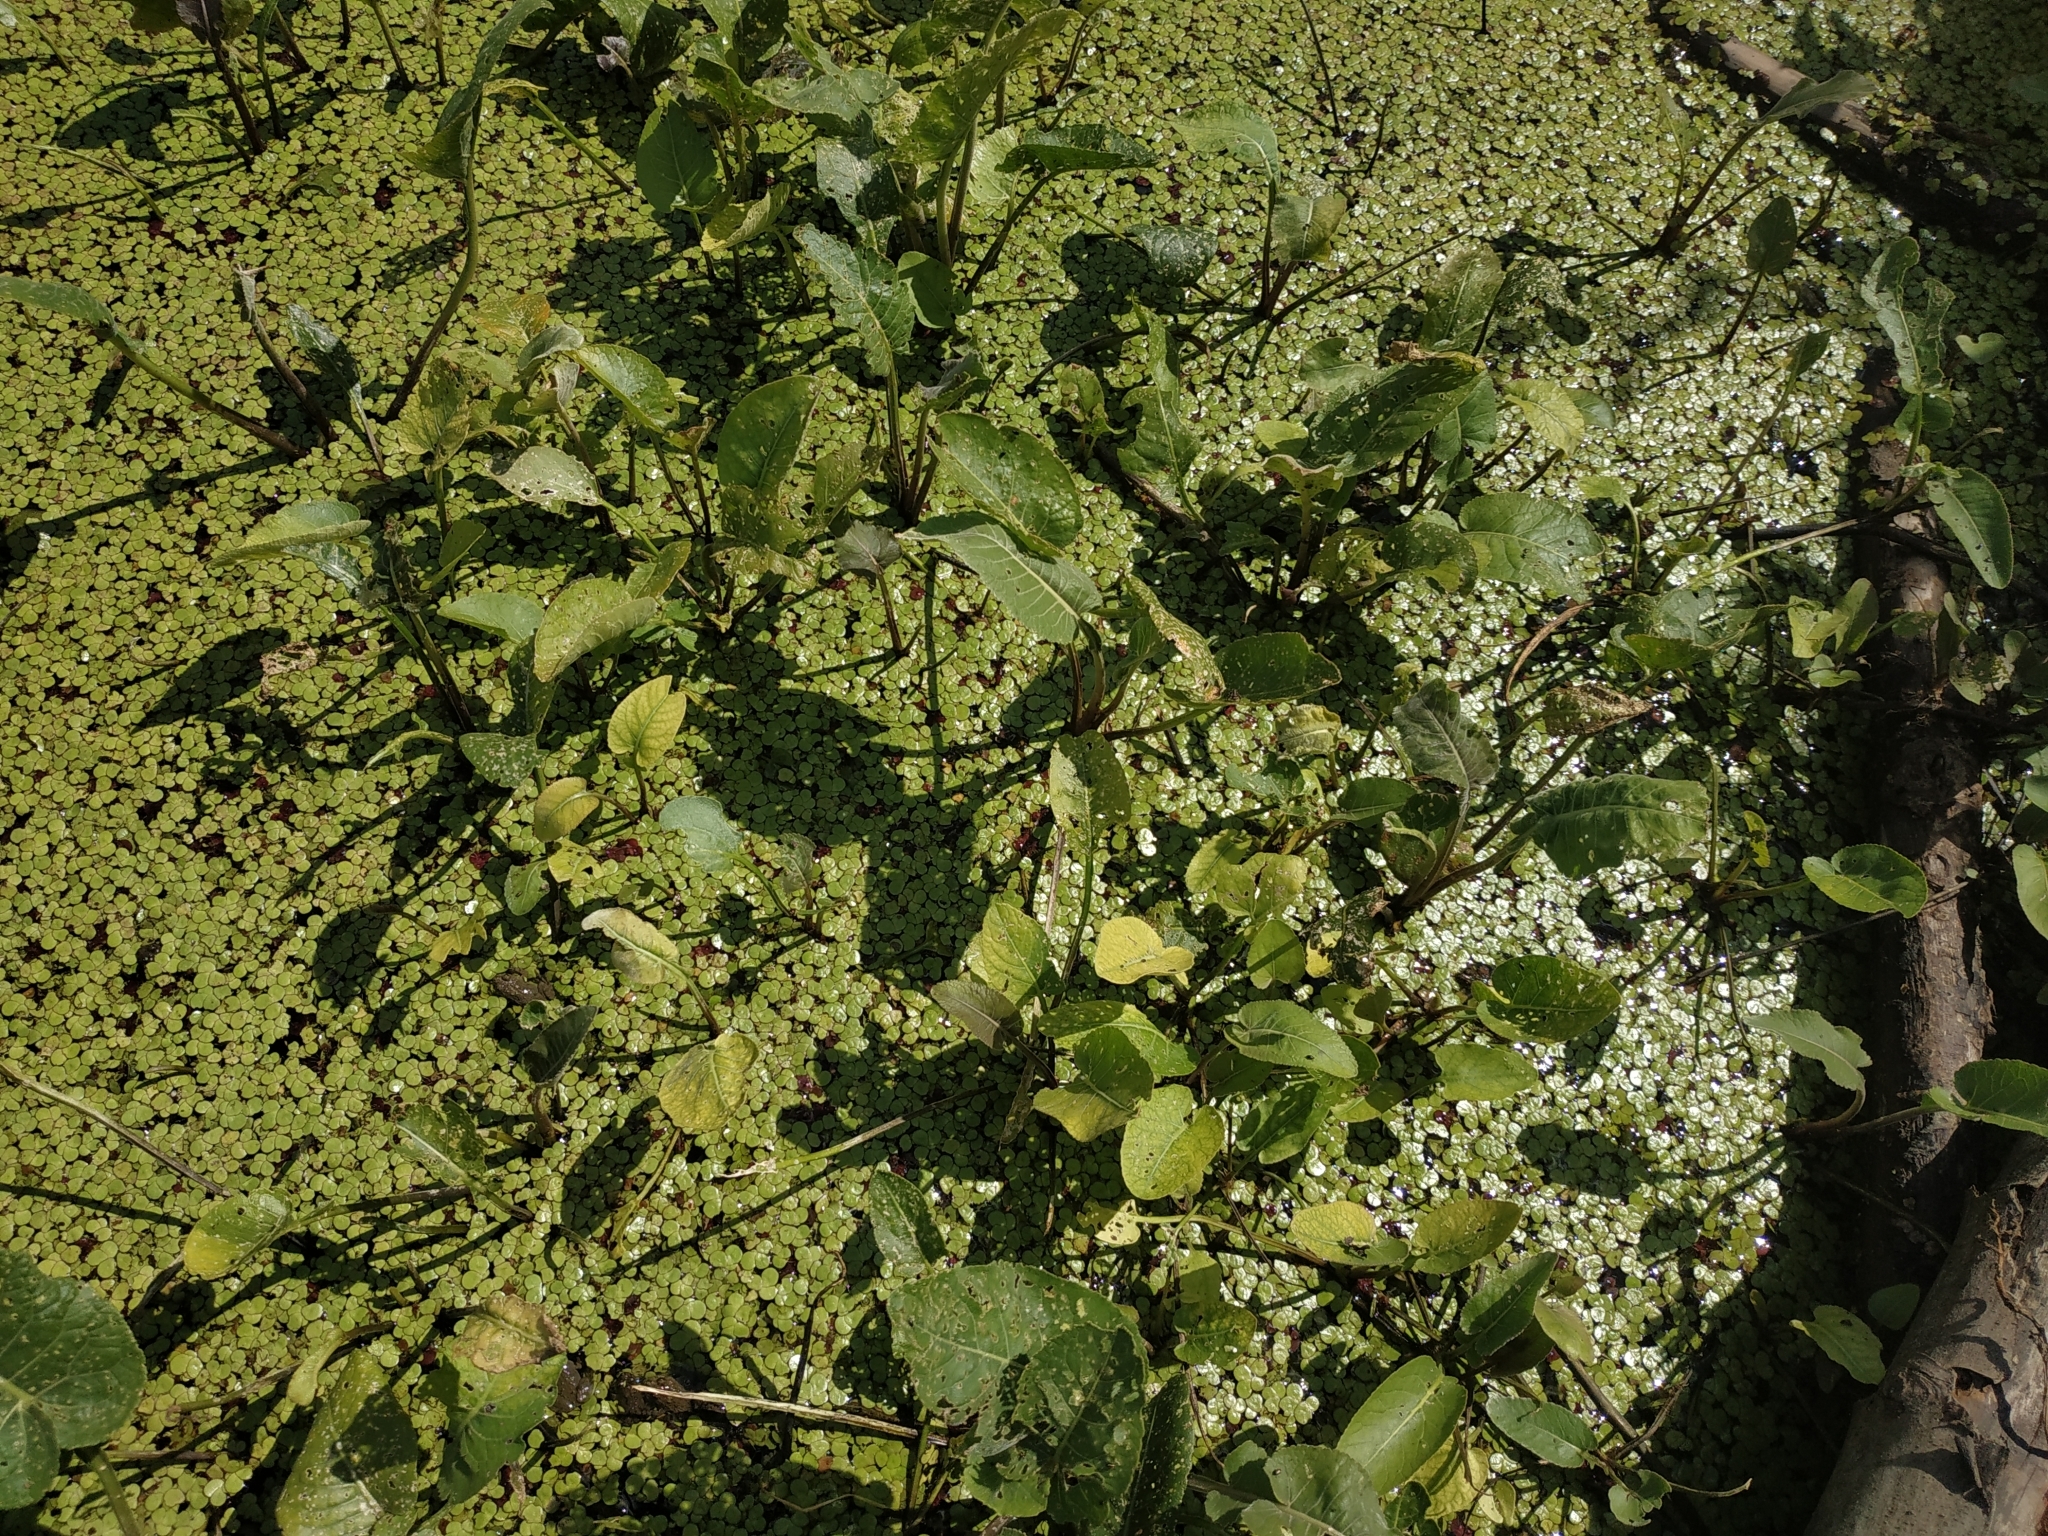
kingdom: Plantae
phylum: Tracheophyta
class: Magnoliopsida
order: Brassicales
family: Brassicaceae
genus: Rorippa
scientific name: Rorippa amphibia
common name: Great yellow-cress
